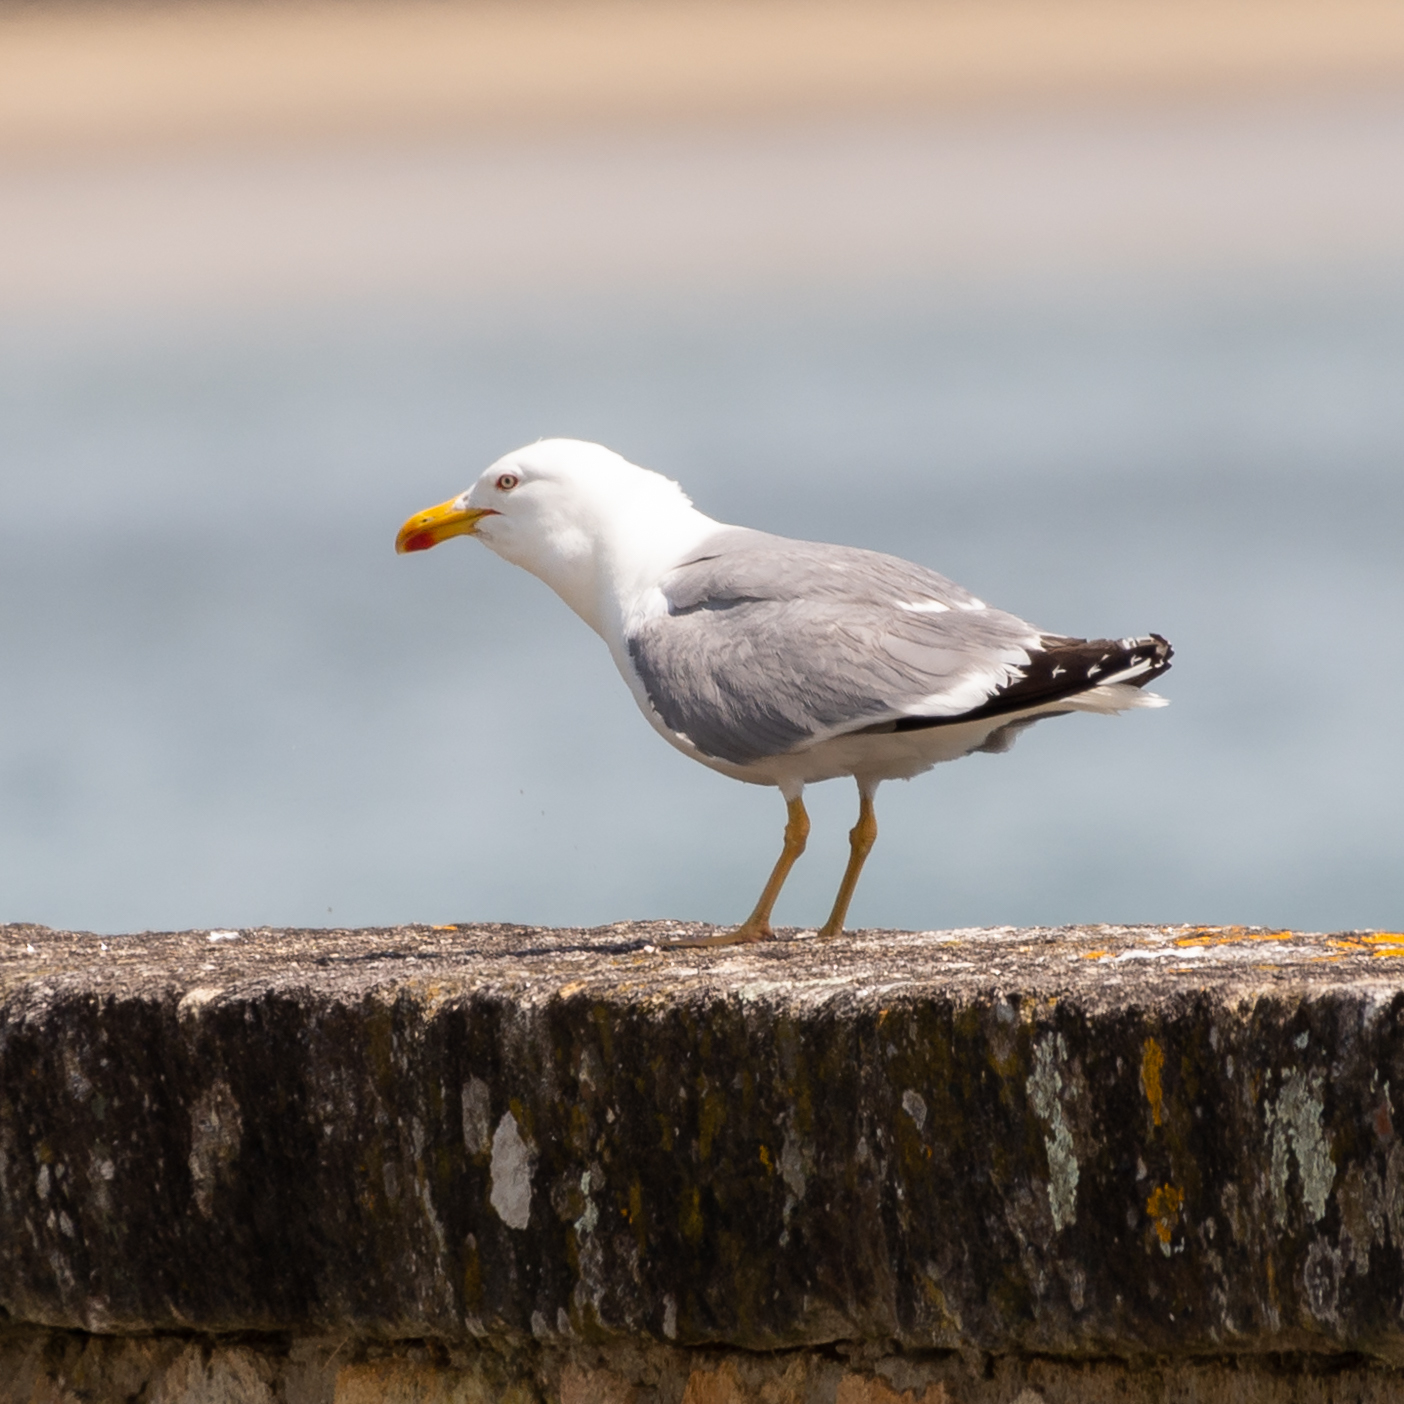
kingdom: Animalia
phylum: Chordata
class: Aves
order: Charadriiformes
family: Laridae
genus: Larus
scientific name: Larus michahellis
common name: Yellow-legged gull
